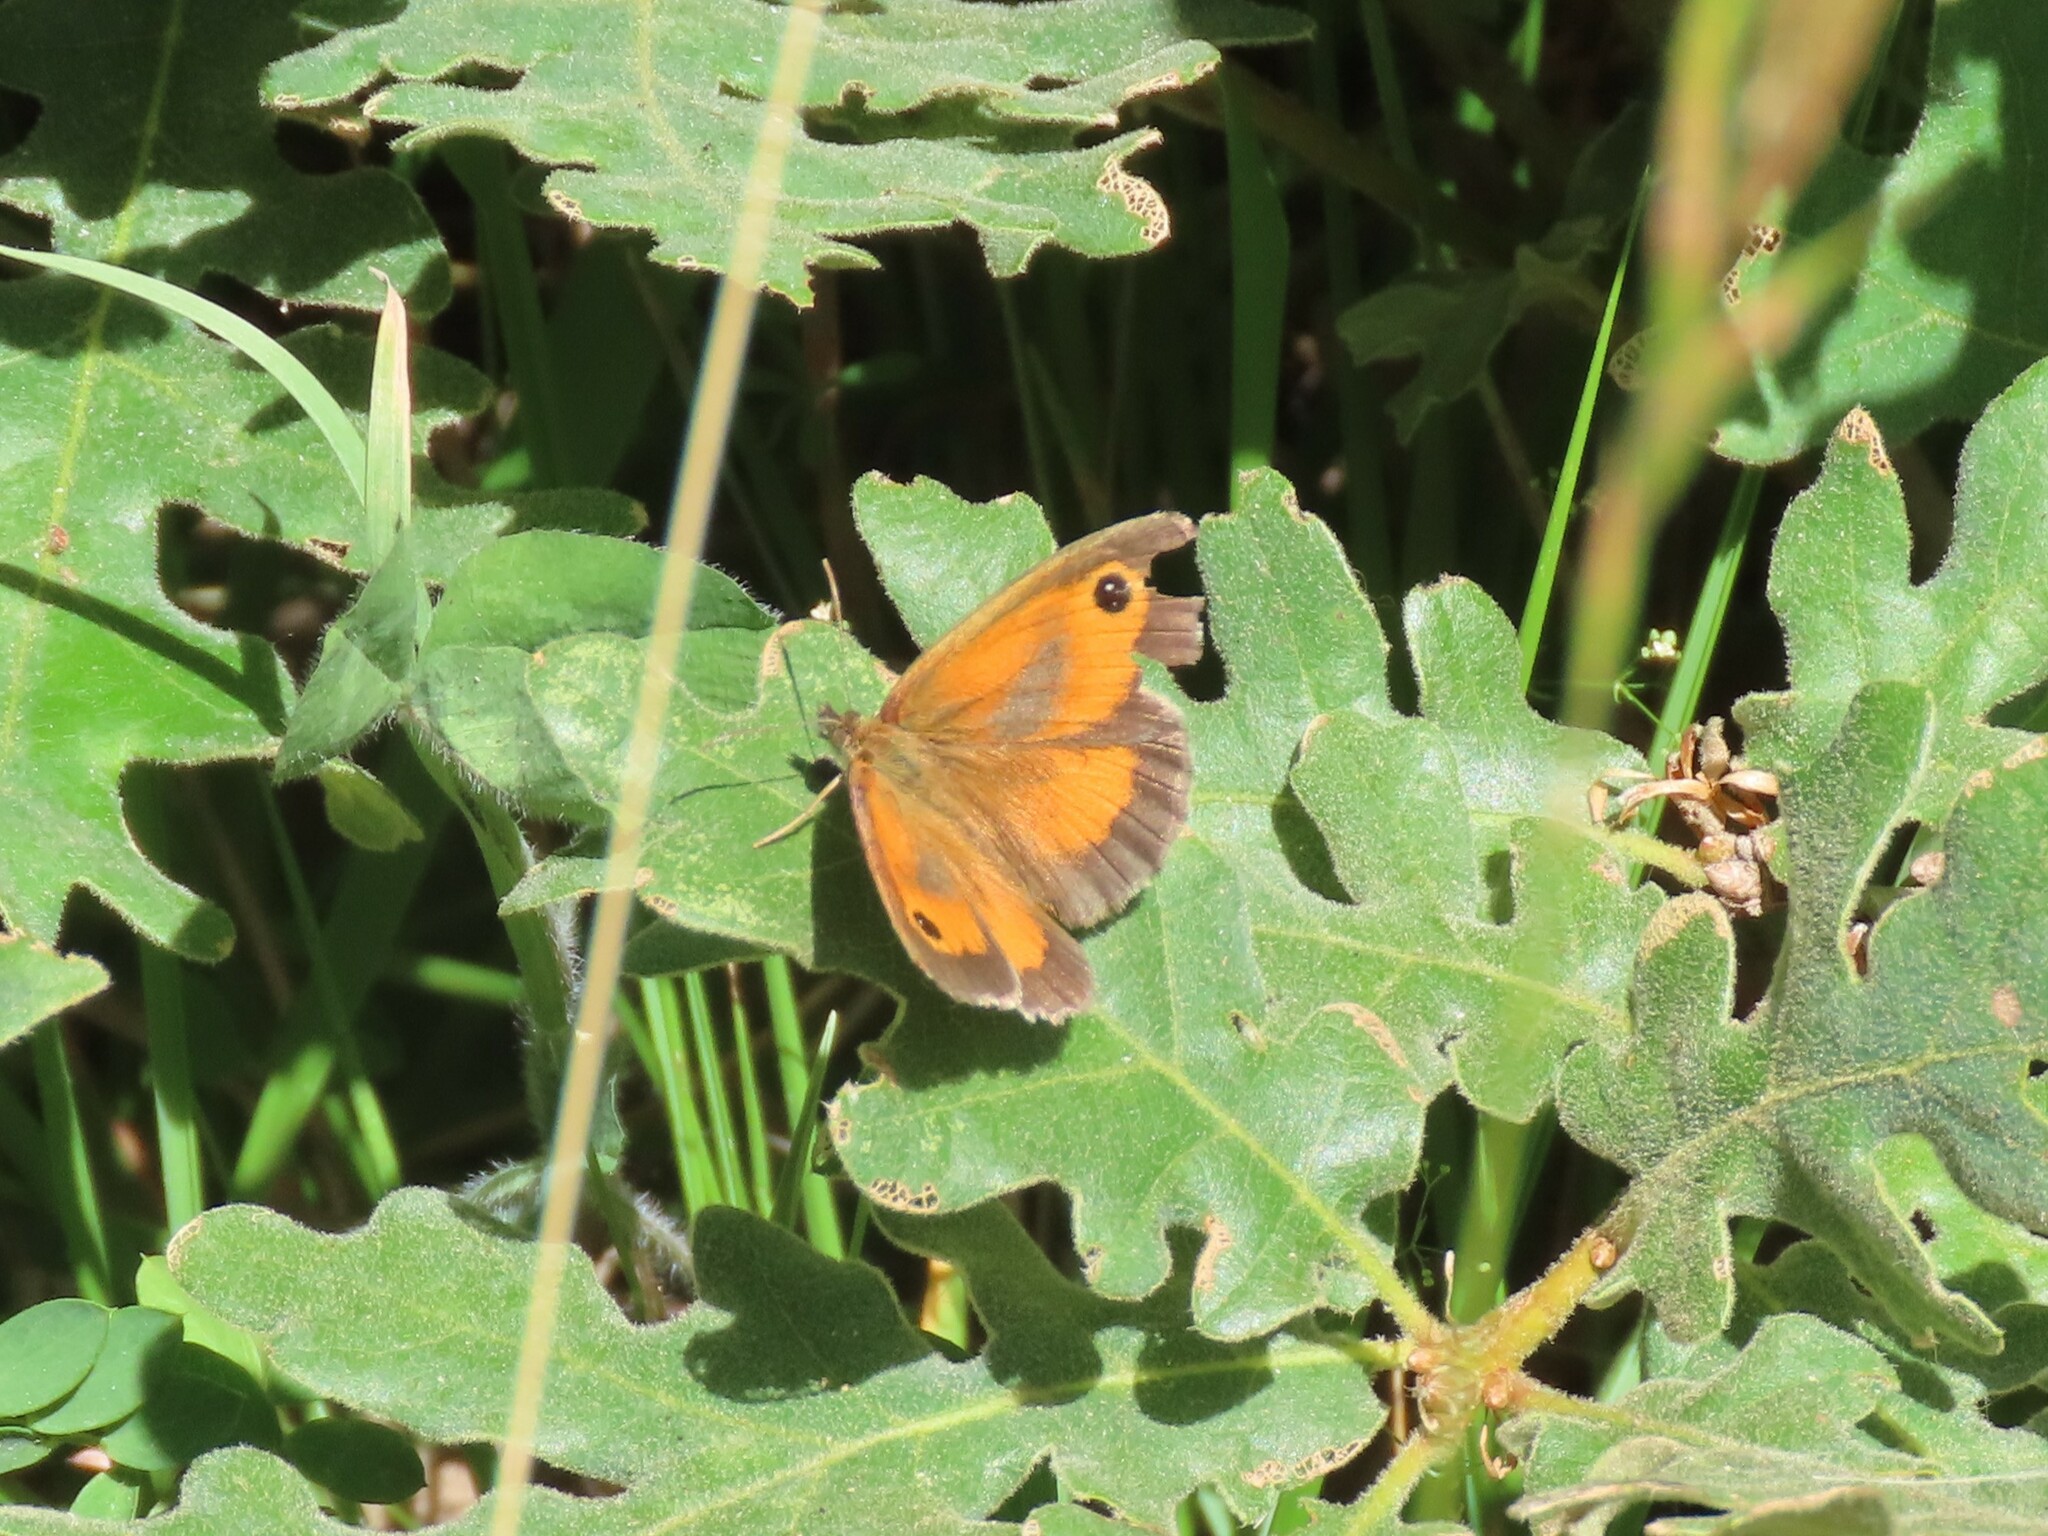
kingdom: Animalia
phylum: Arthropoda
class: Insecta
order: Lepidoptera
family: Nymphalidae
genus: Pyronia
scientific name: Pyronia tithonus
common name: Gatekeeper
